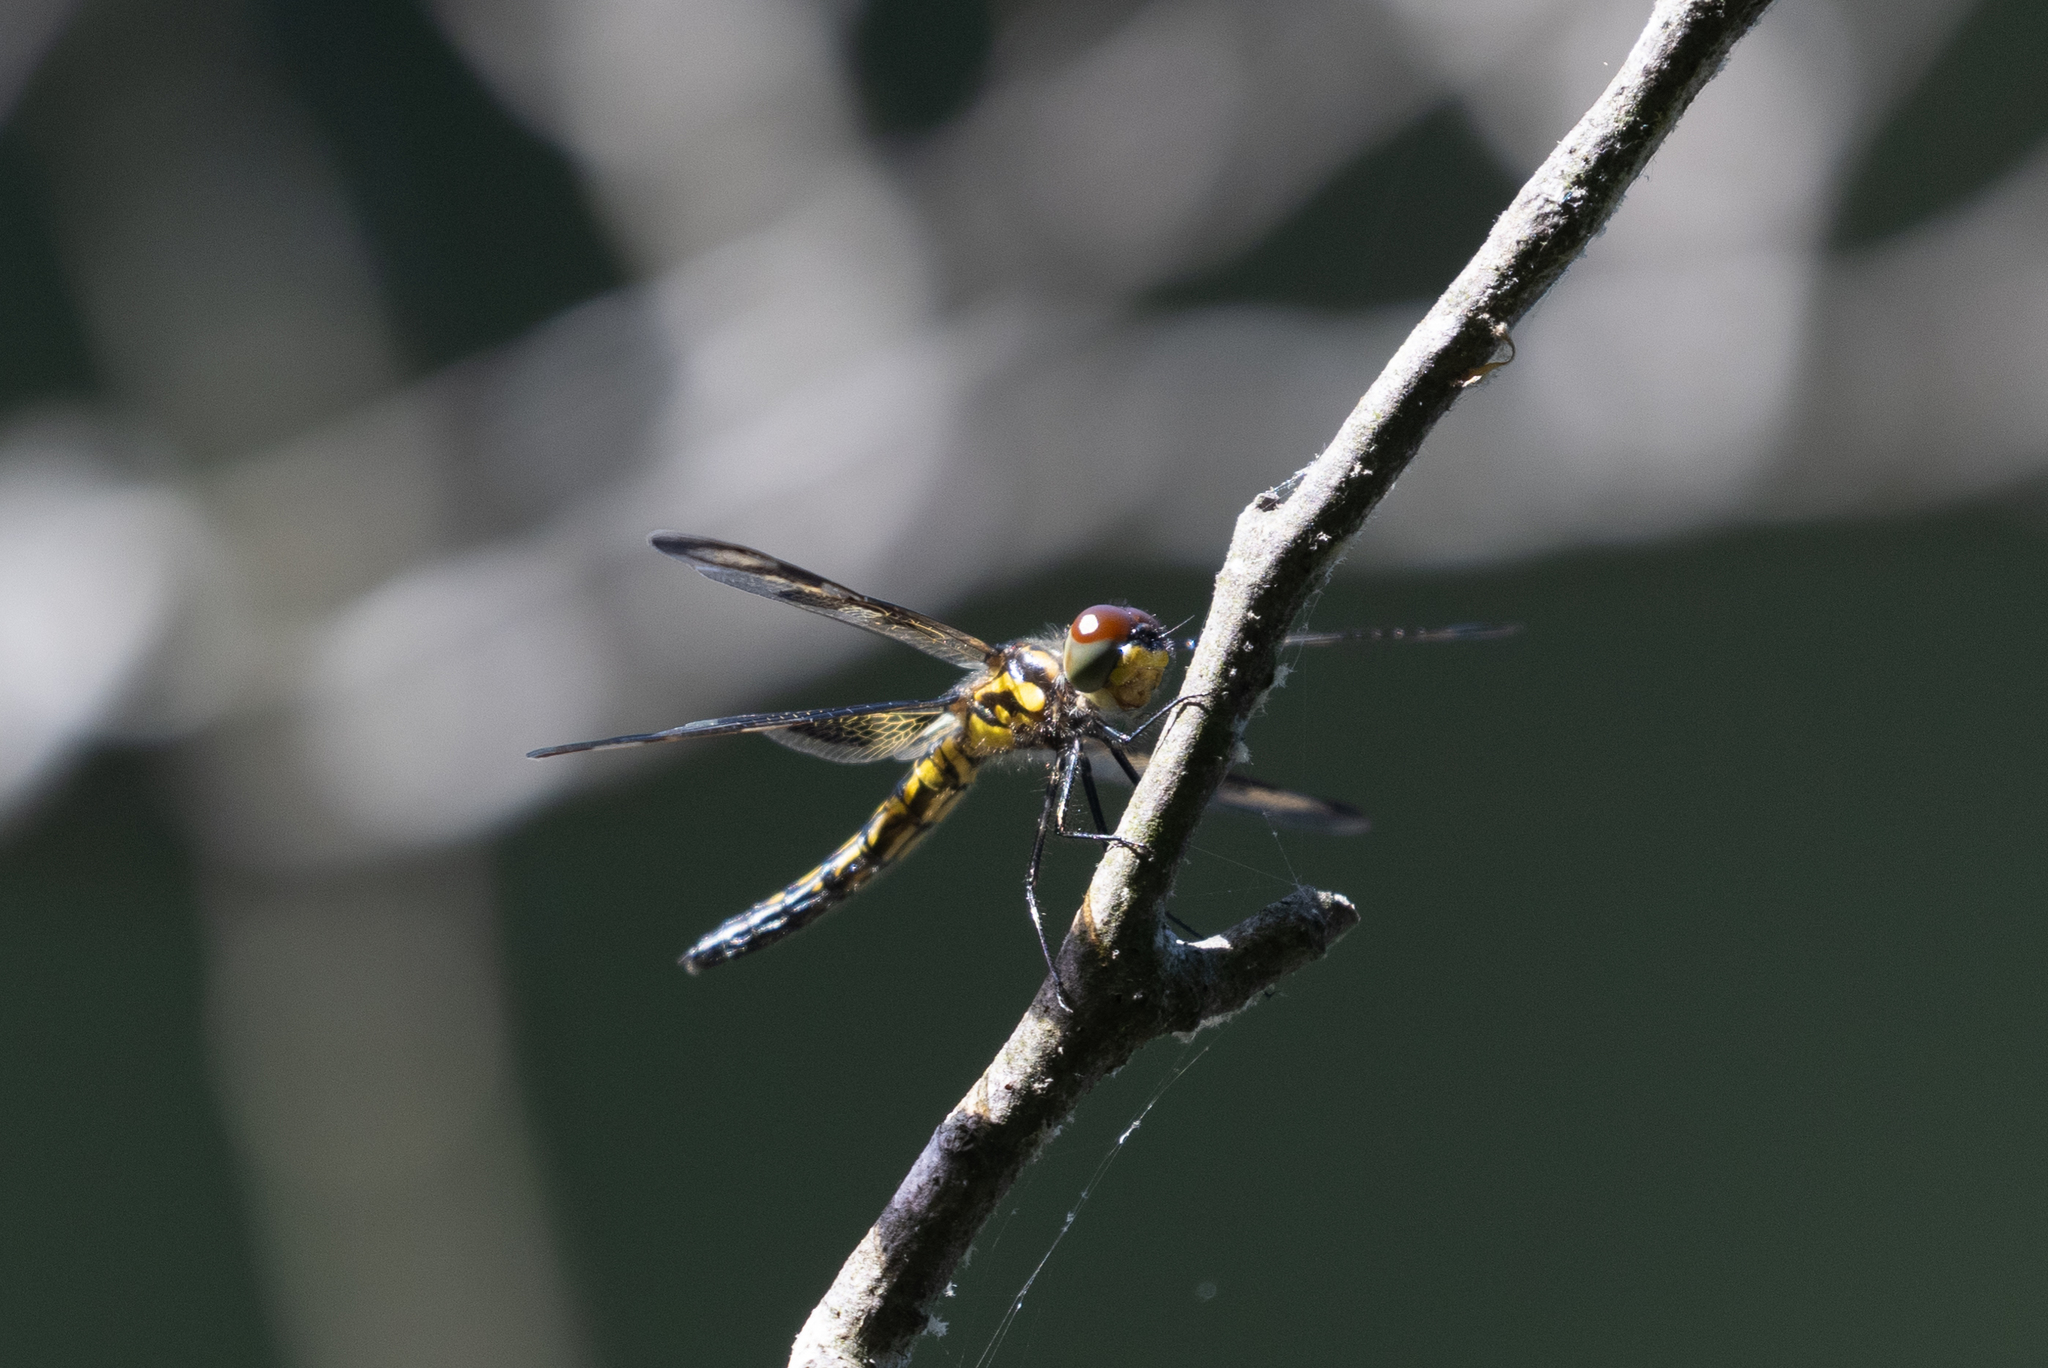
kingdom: Animalia
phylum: Arthropoda
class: Insecta
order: Odonata
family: Libellulidae
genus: Celithemis
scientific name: Celithemis fasciata
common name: Banded pennant
